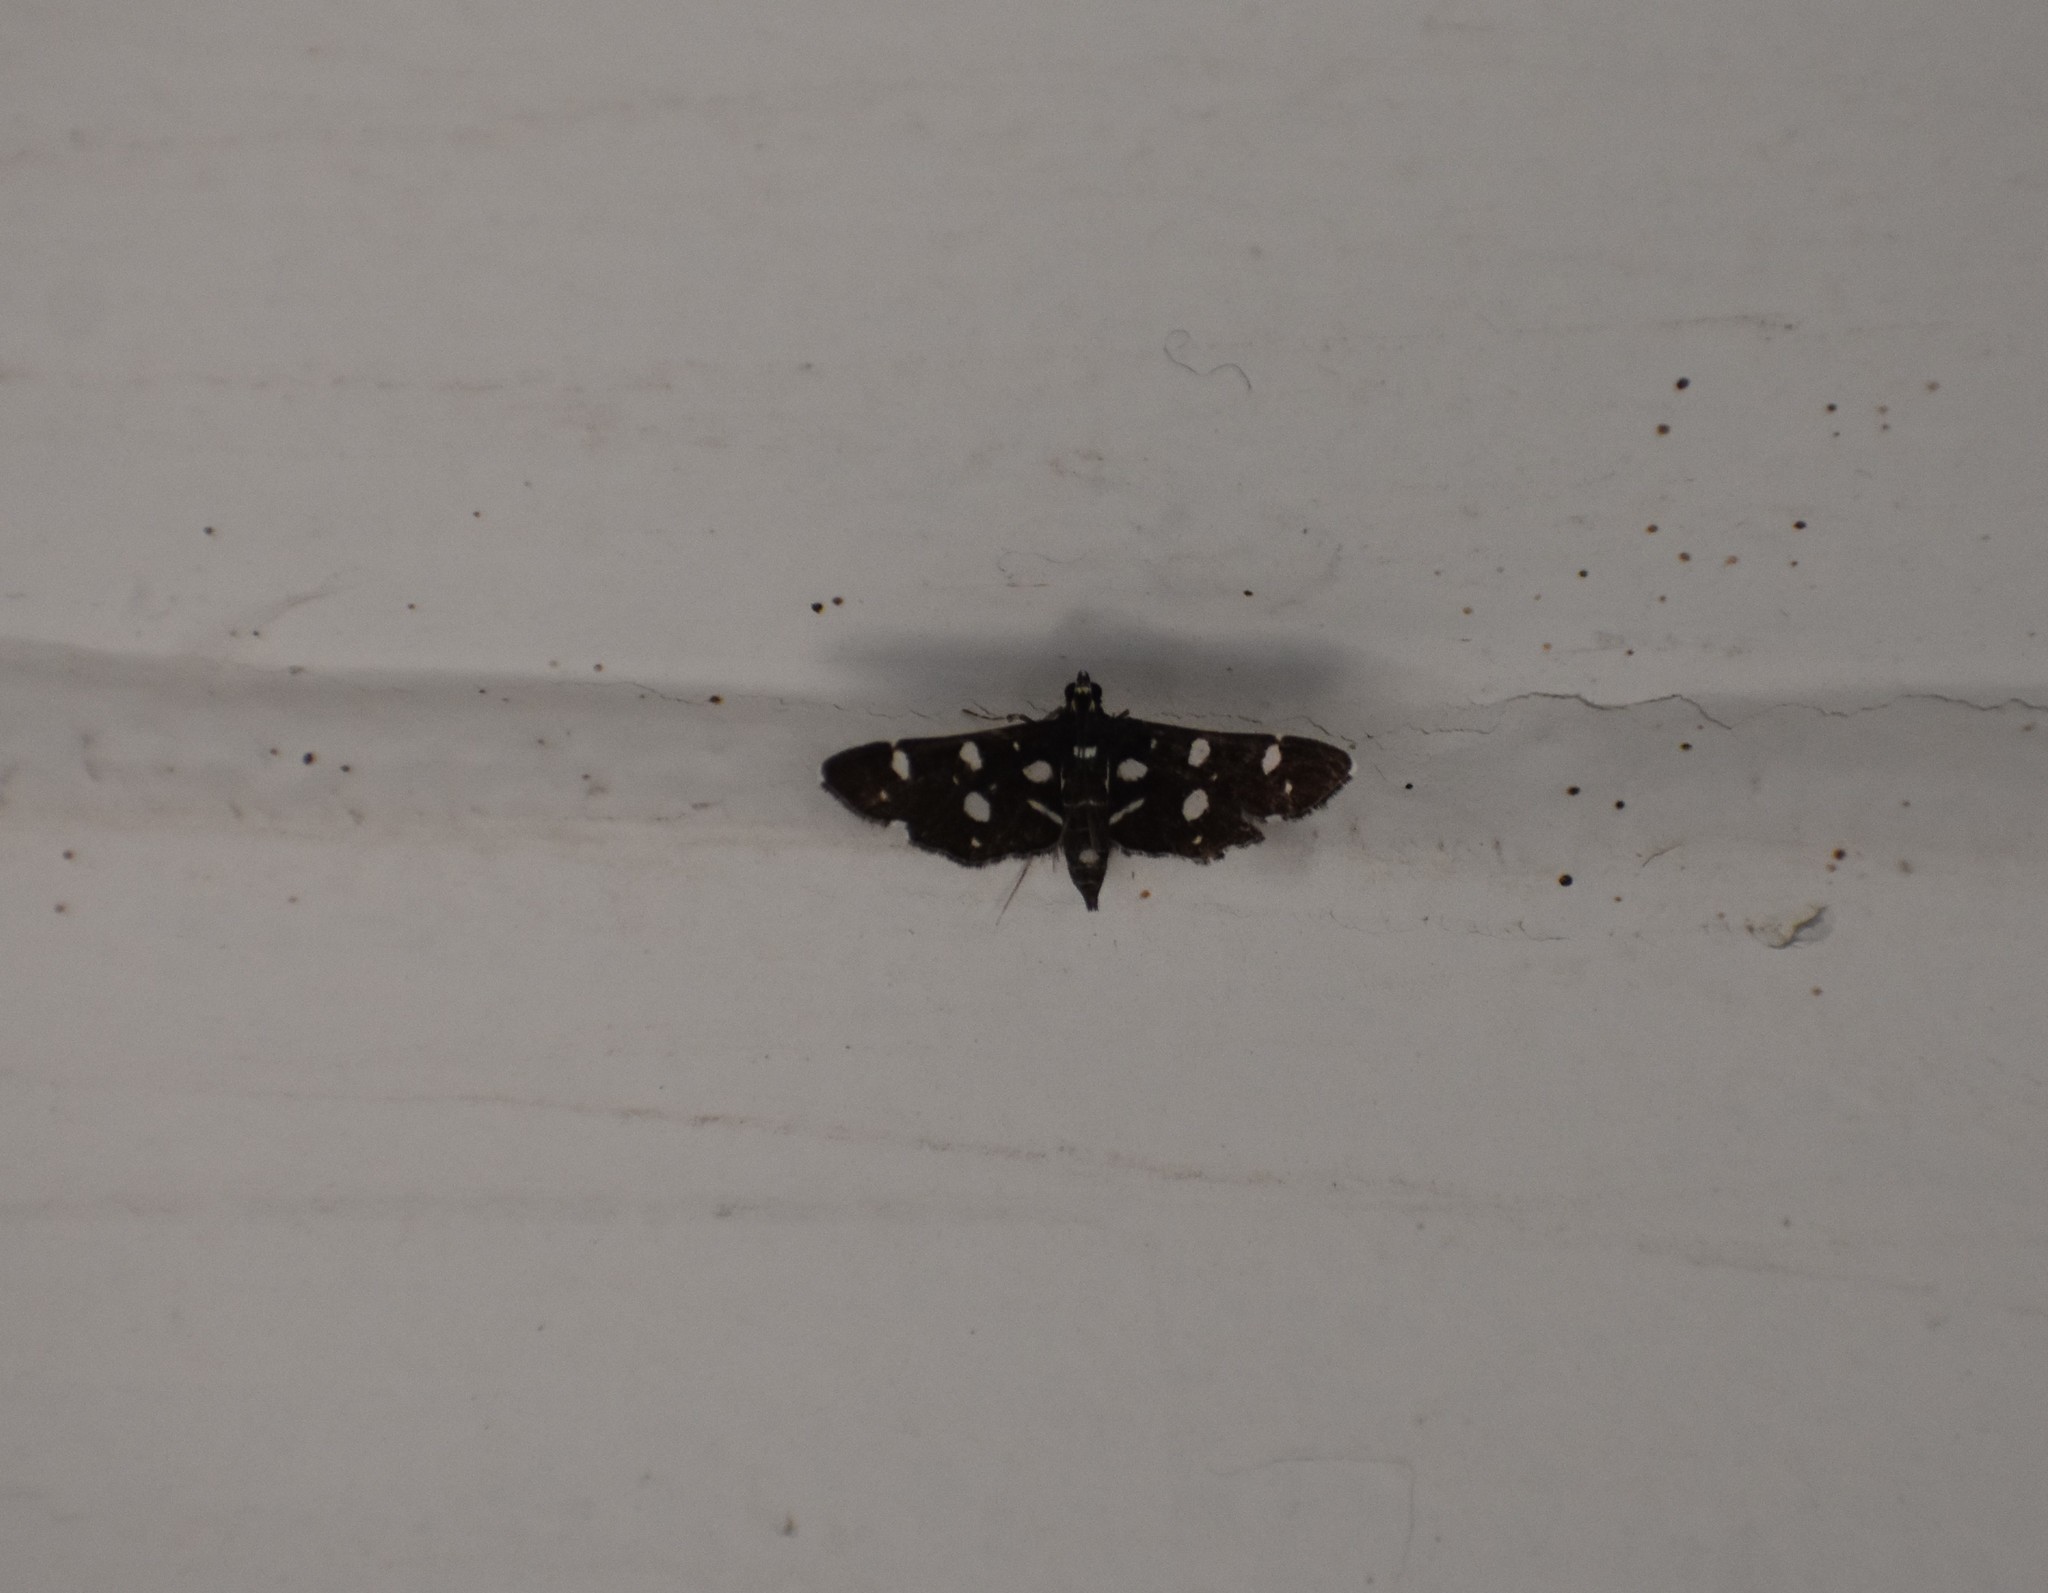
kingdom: Animalia
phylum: Arthropoda
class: Insecta
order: Lepidoptera
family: Crambidae
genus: Bocchoris
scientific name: Bocchoris inspersalis
